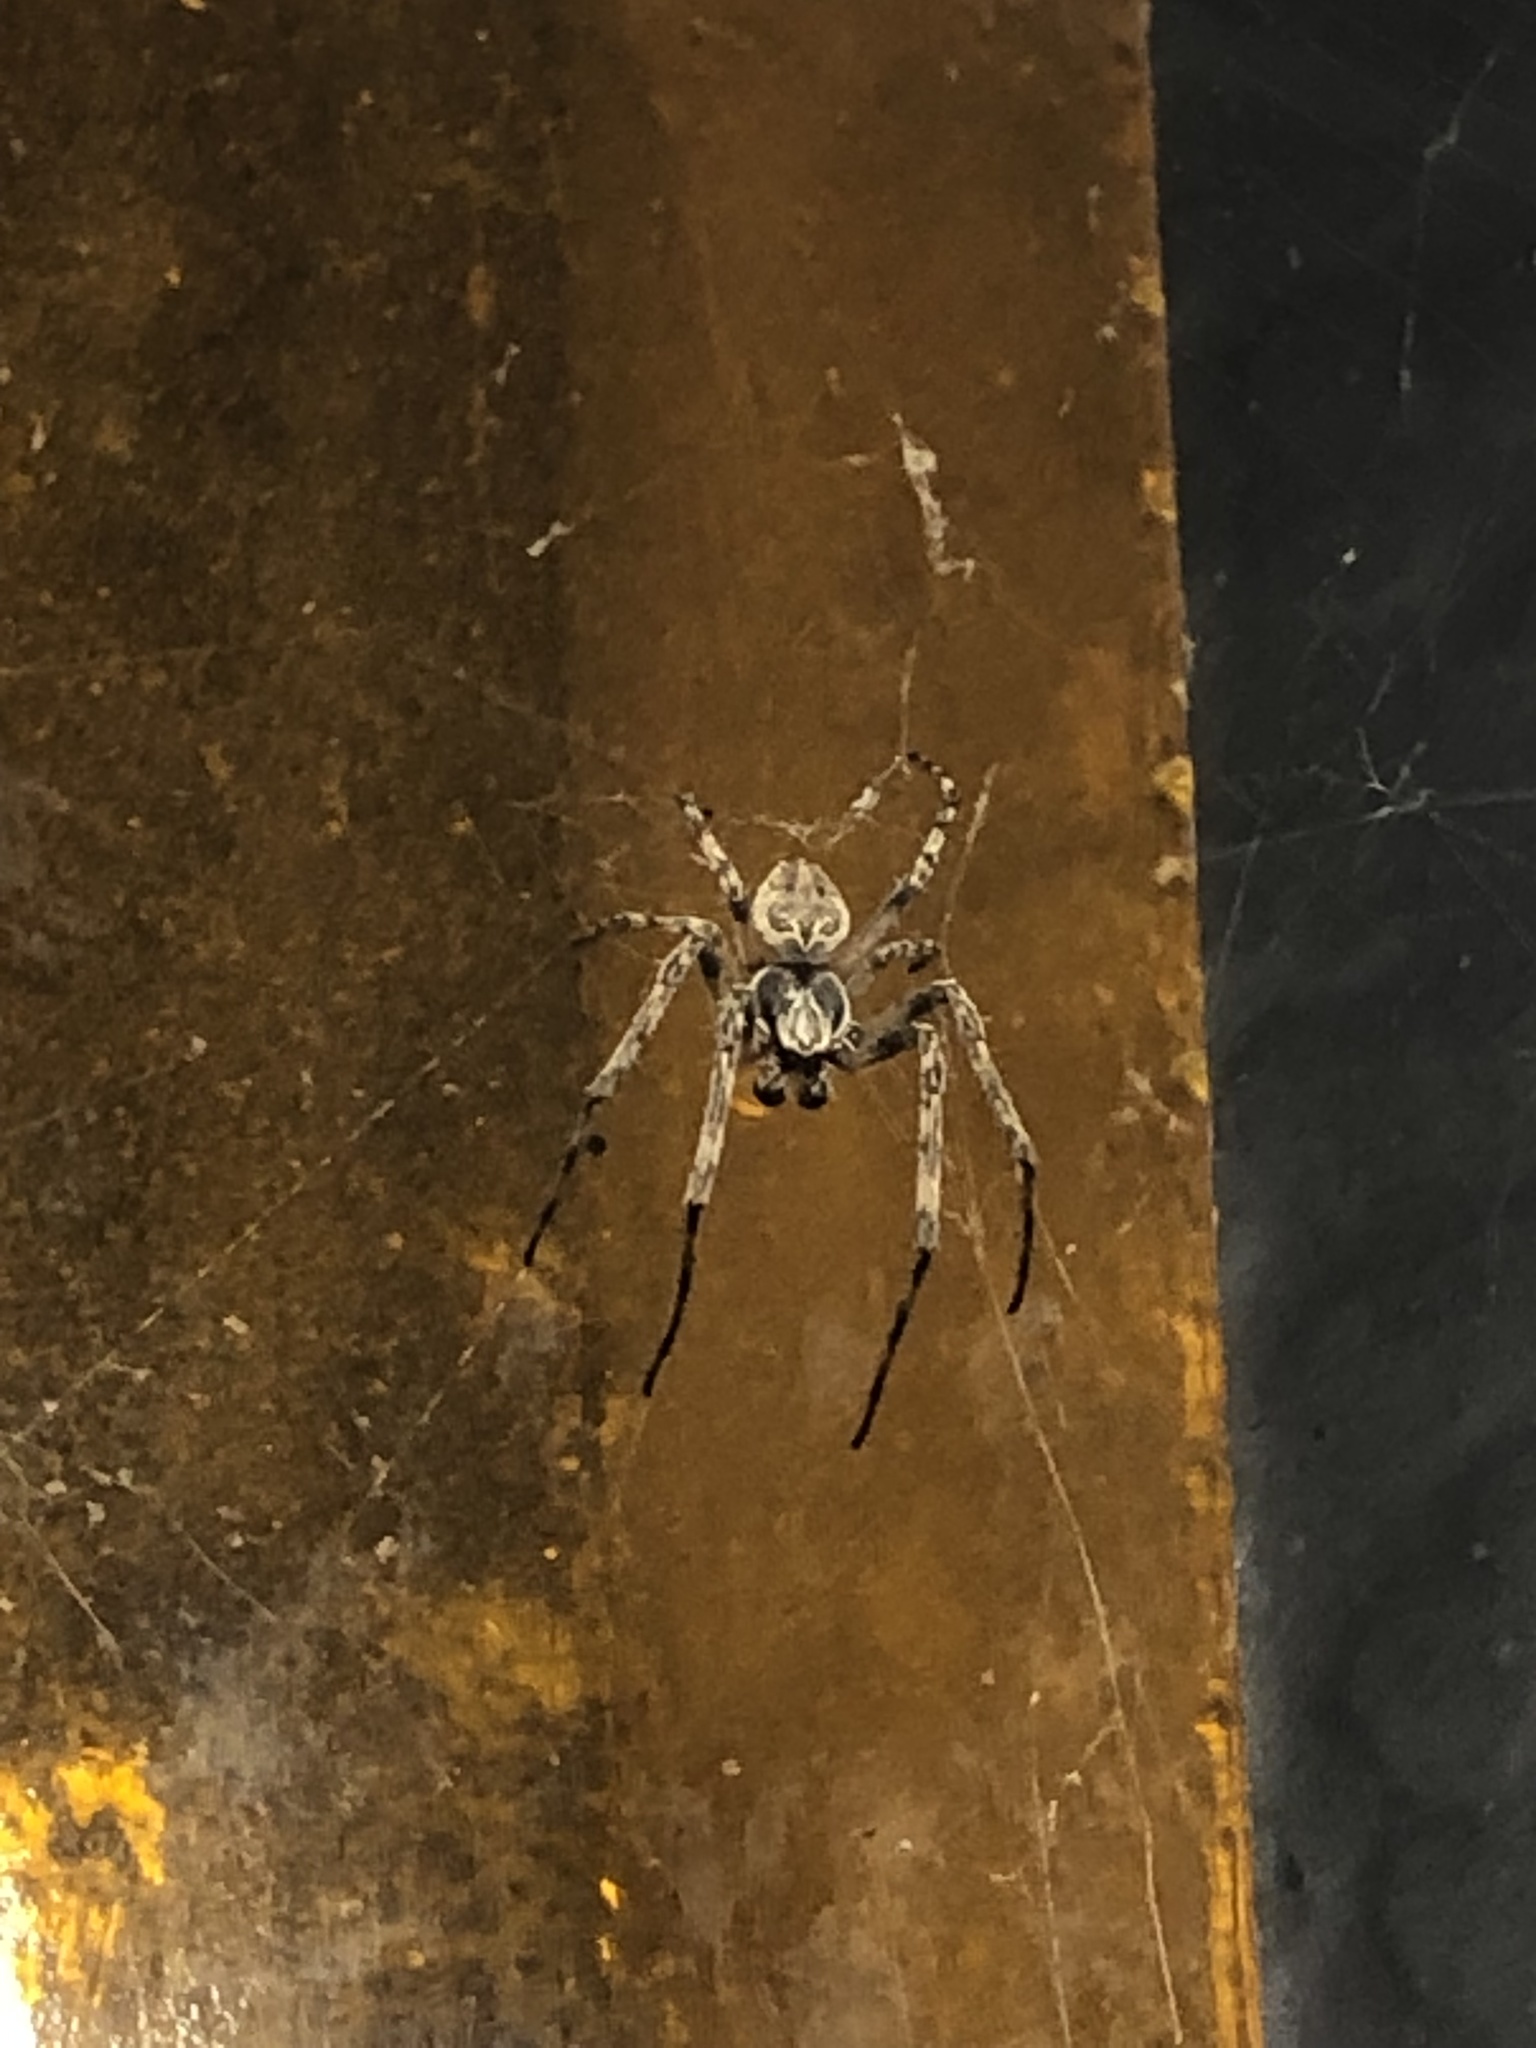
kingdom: Animalia
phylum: Arthropoda
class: Arachnida
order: Araneae
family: Araneidae
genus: Larinioides
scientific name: Larinioides sclopetarius
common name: Bridge orbweaver
